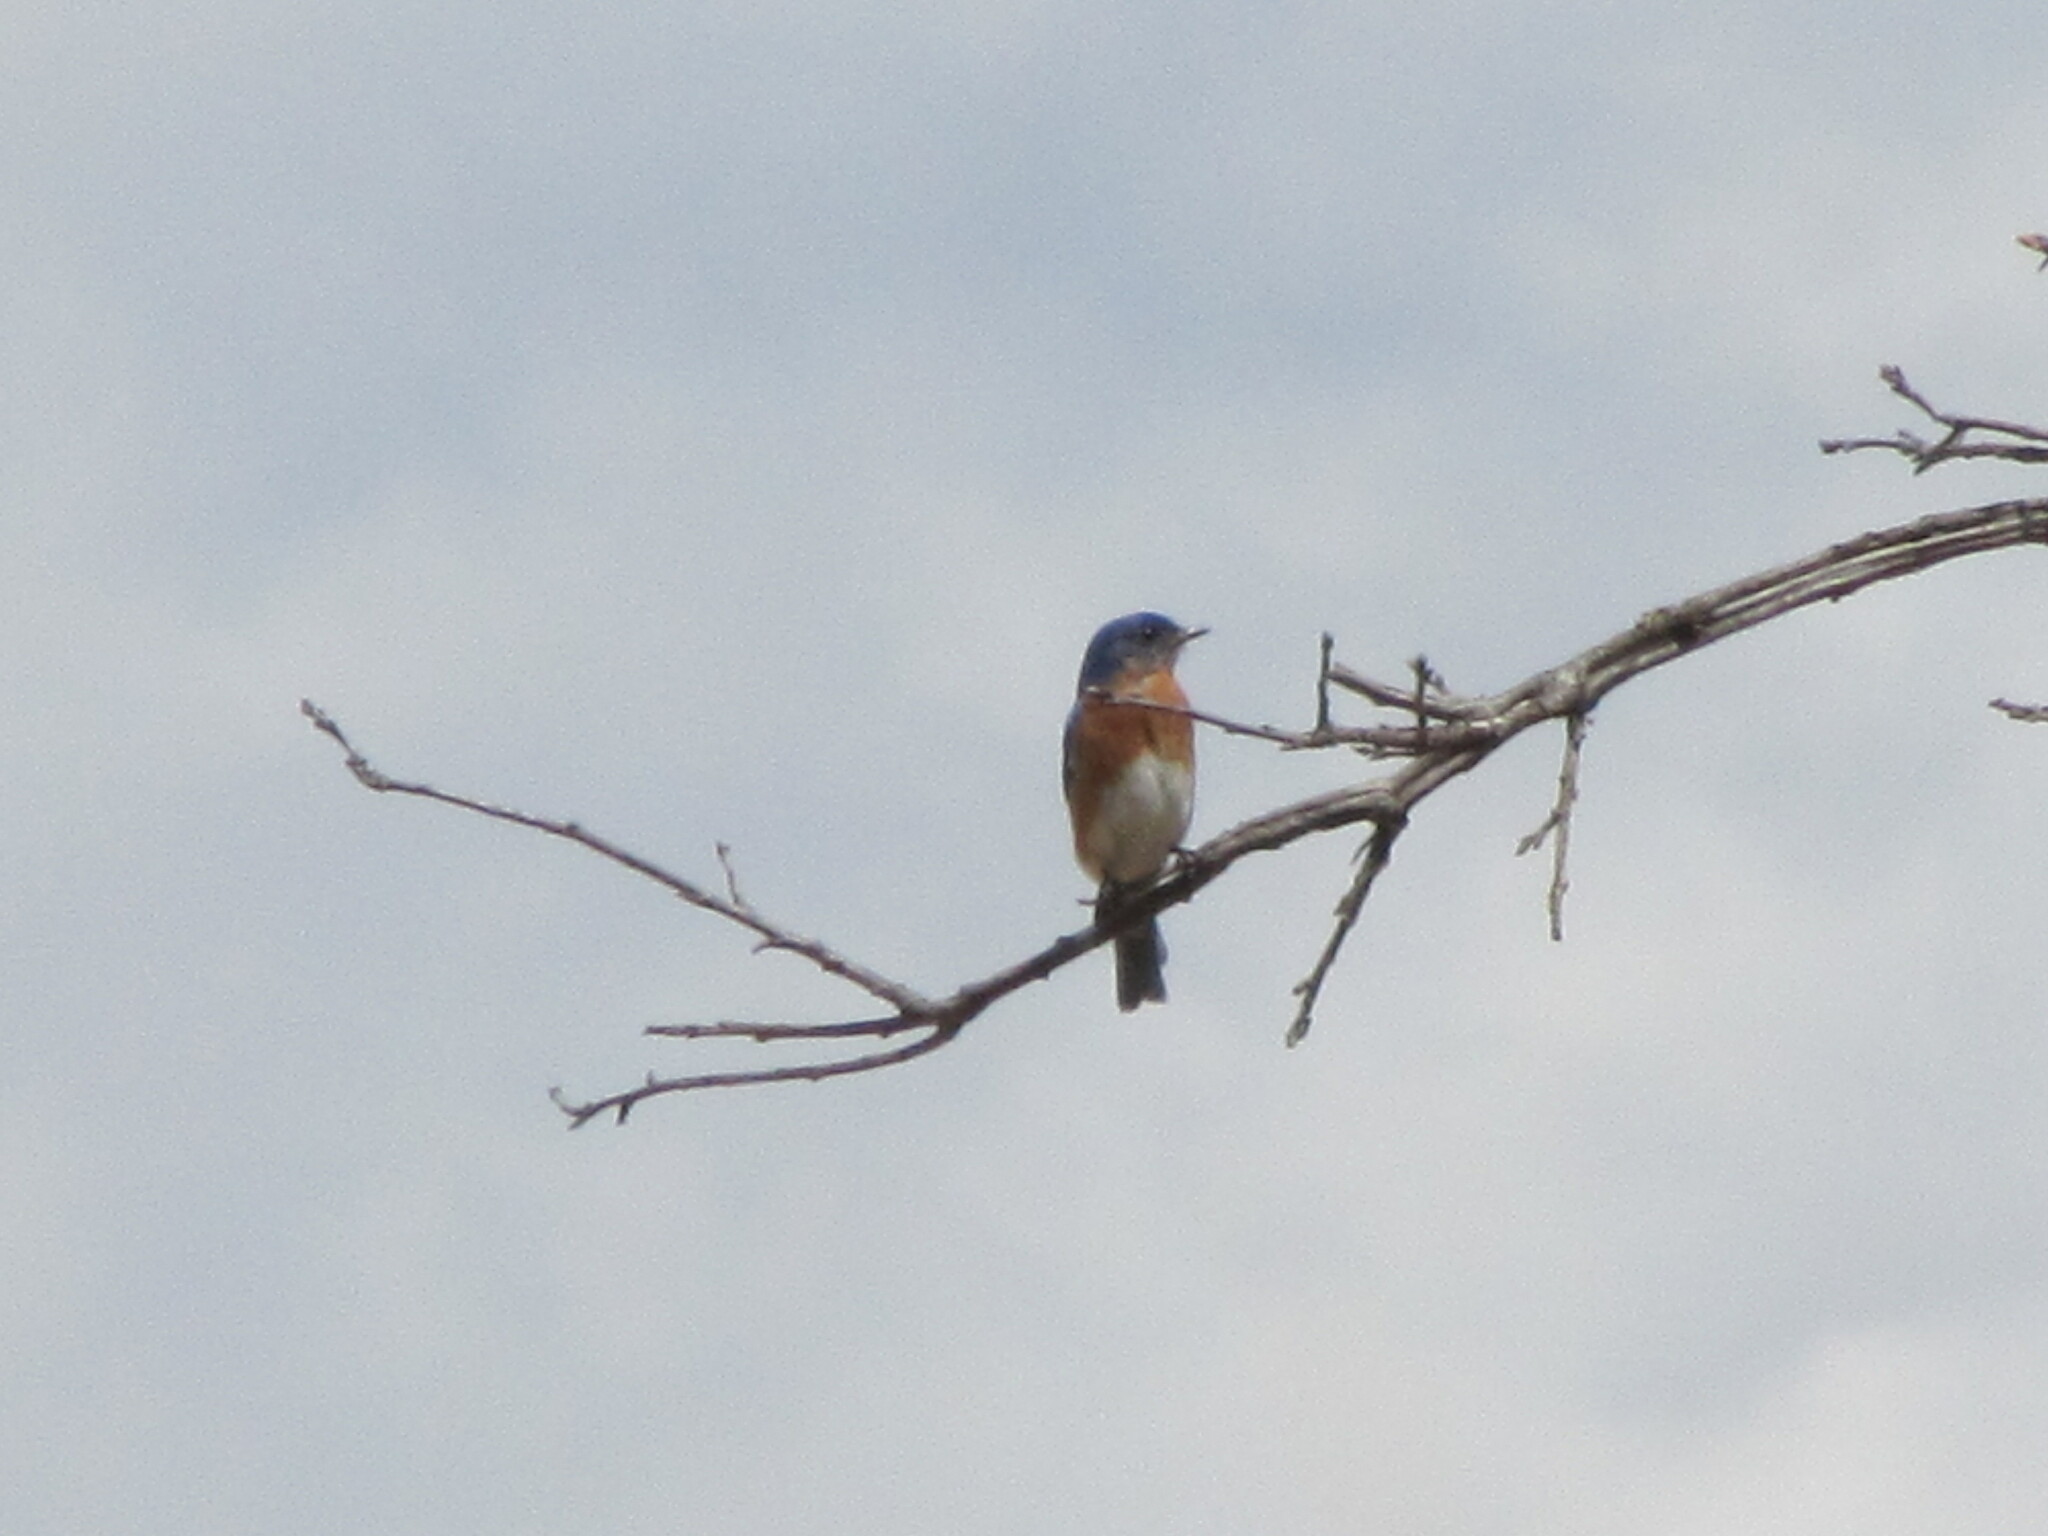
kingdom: Animalia
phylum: Chordata
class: Aves
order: Passeriformes
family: Turdidae
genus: Sialia
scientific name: Sialia sialis
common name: Eastern bluebird
